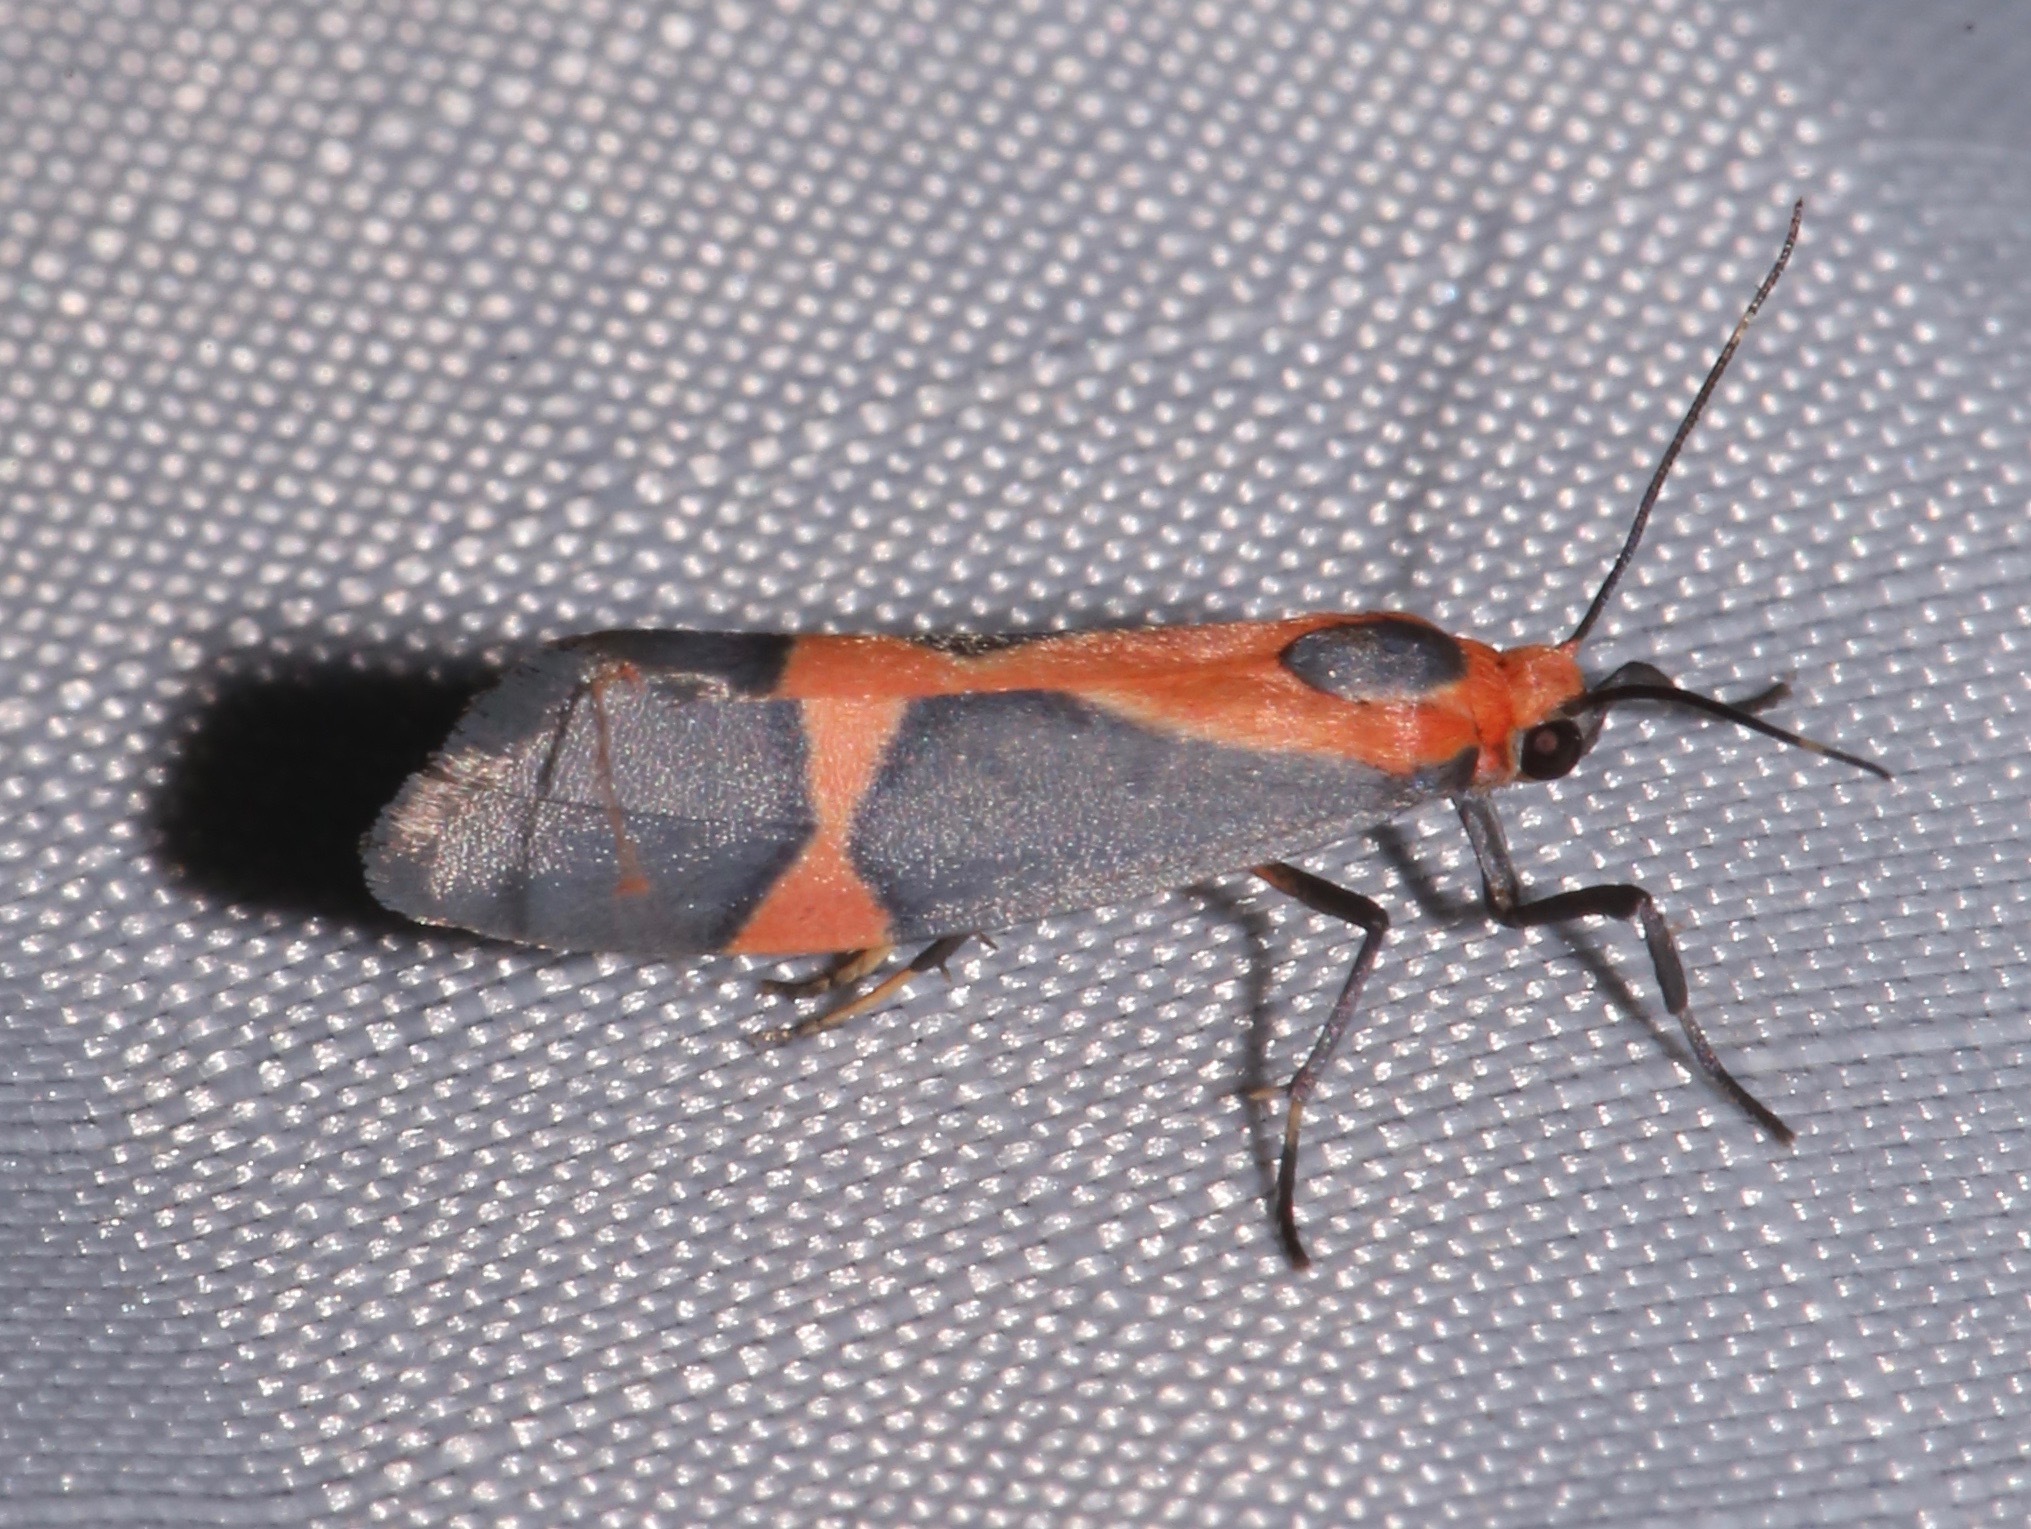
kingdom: Animalia
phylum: Arthropoda
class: Insecta
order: Lepidoptera
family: Erebidae
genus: Cisthene
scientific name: Cisthene martini
